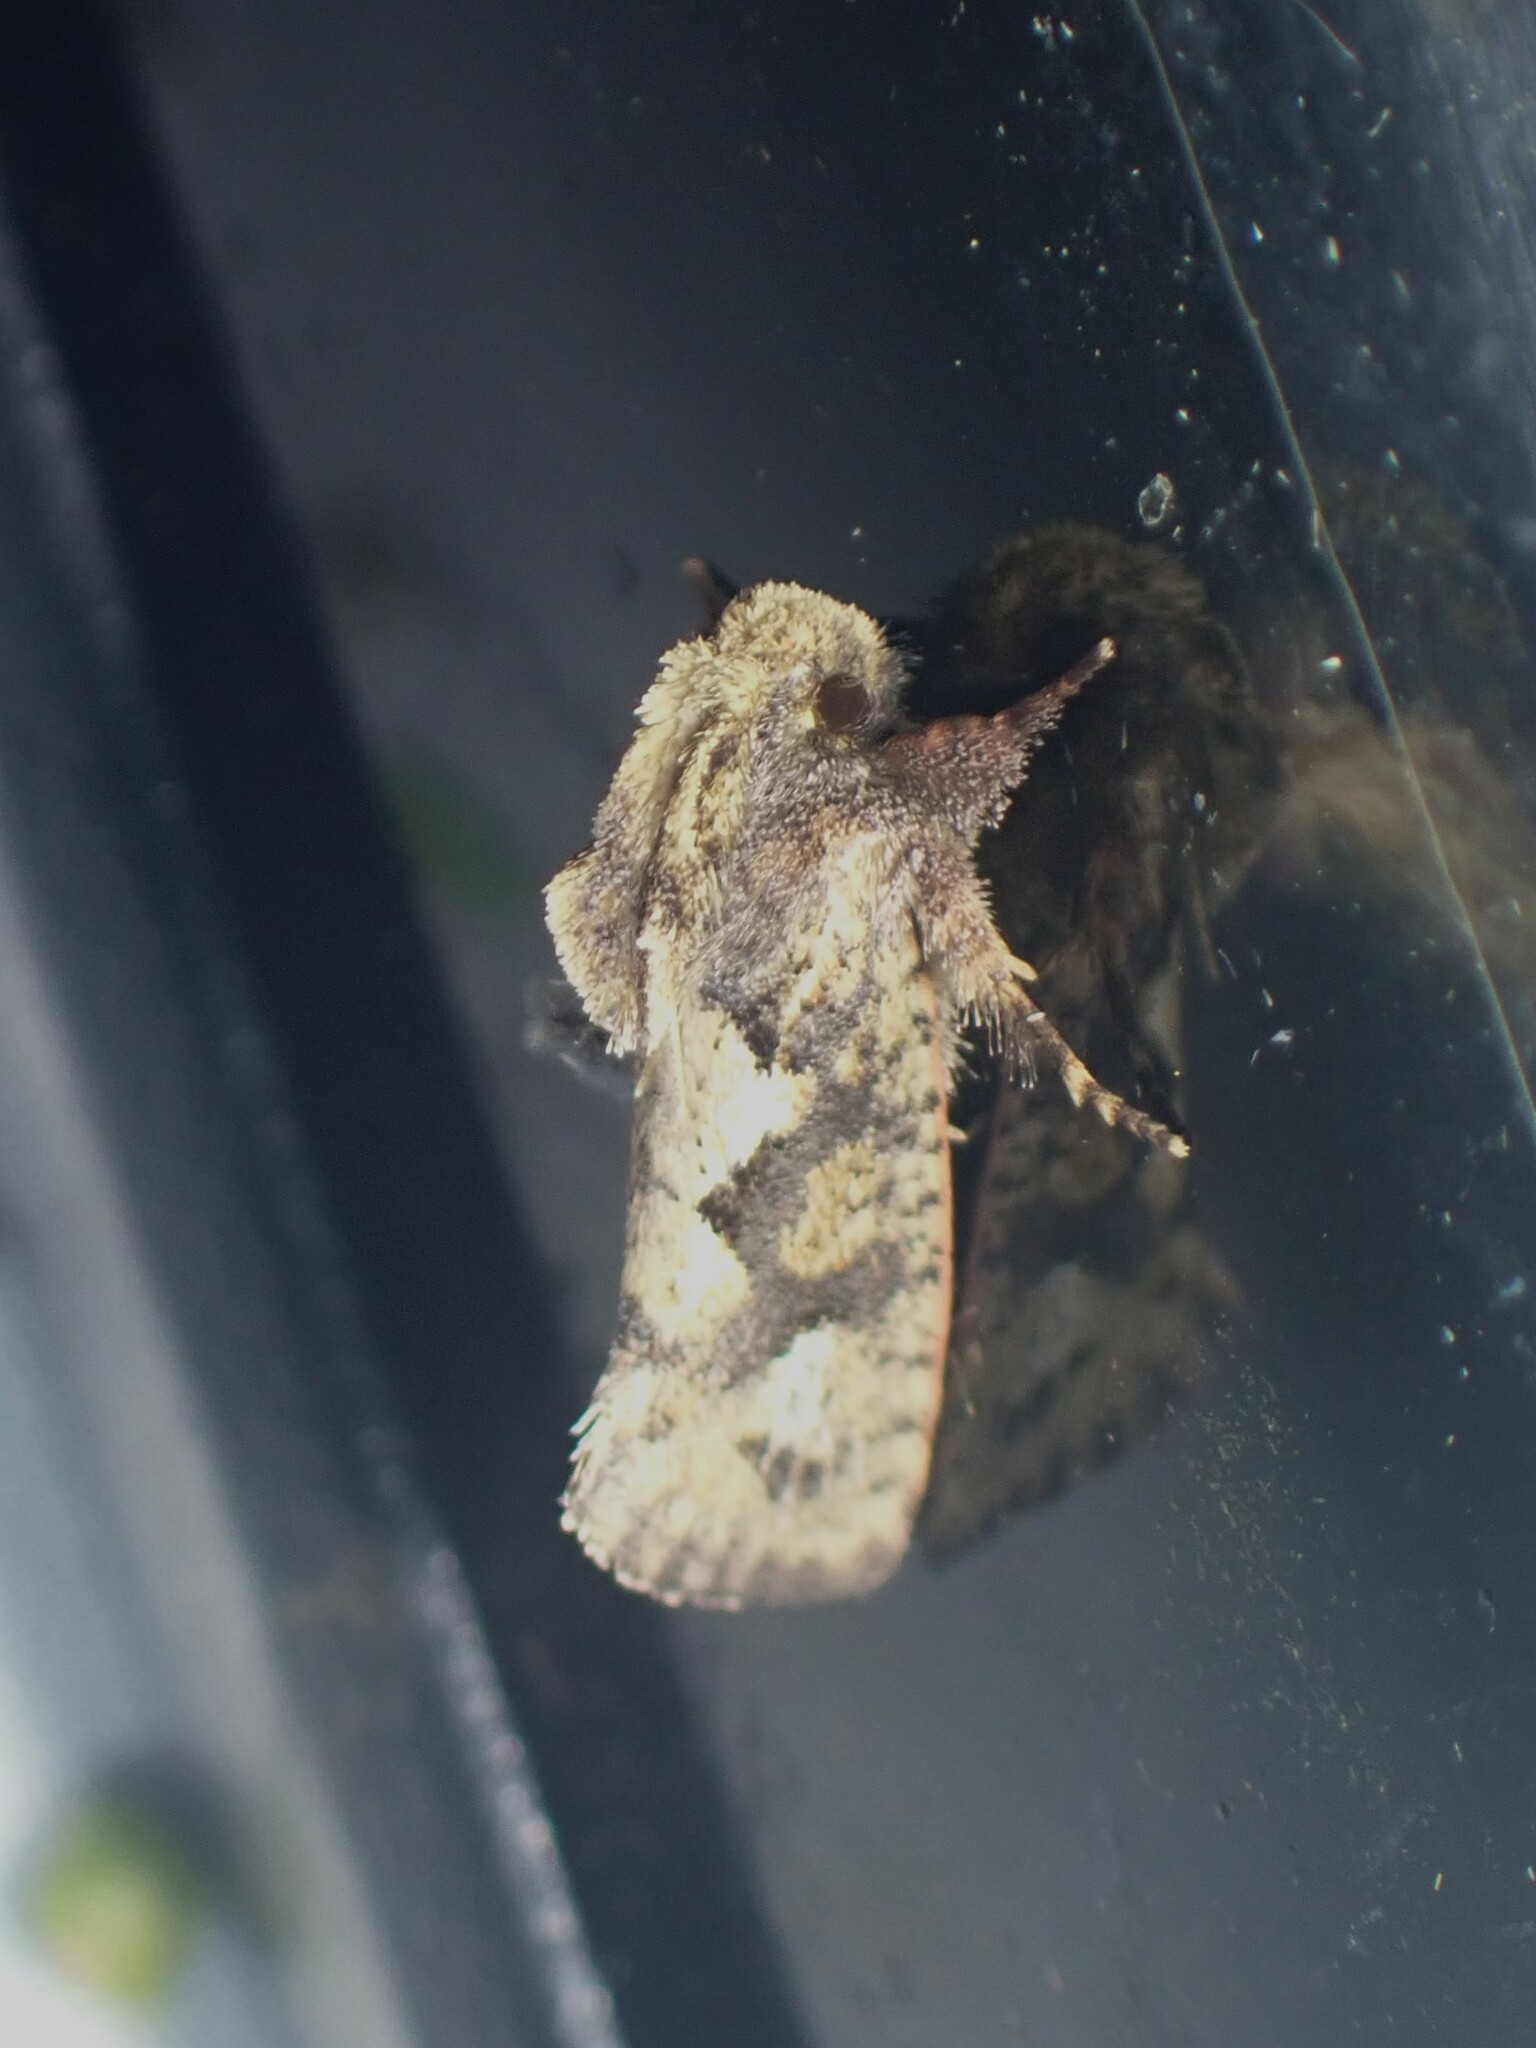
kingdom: Animalia
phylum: Arthropoda
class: Insecta
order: Lepidoptera
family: Tineidae
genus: Acrolophus
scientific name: Acrolophus walsinghami
